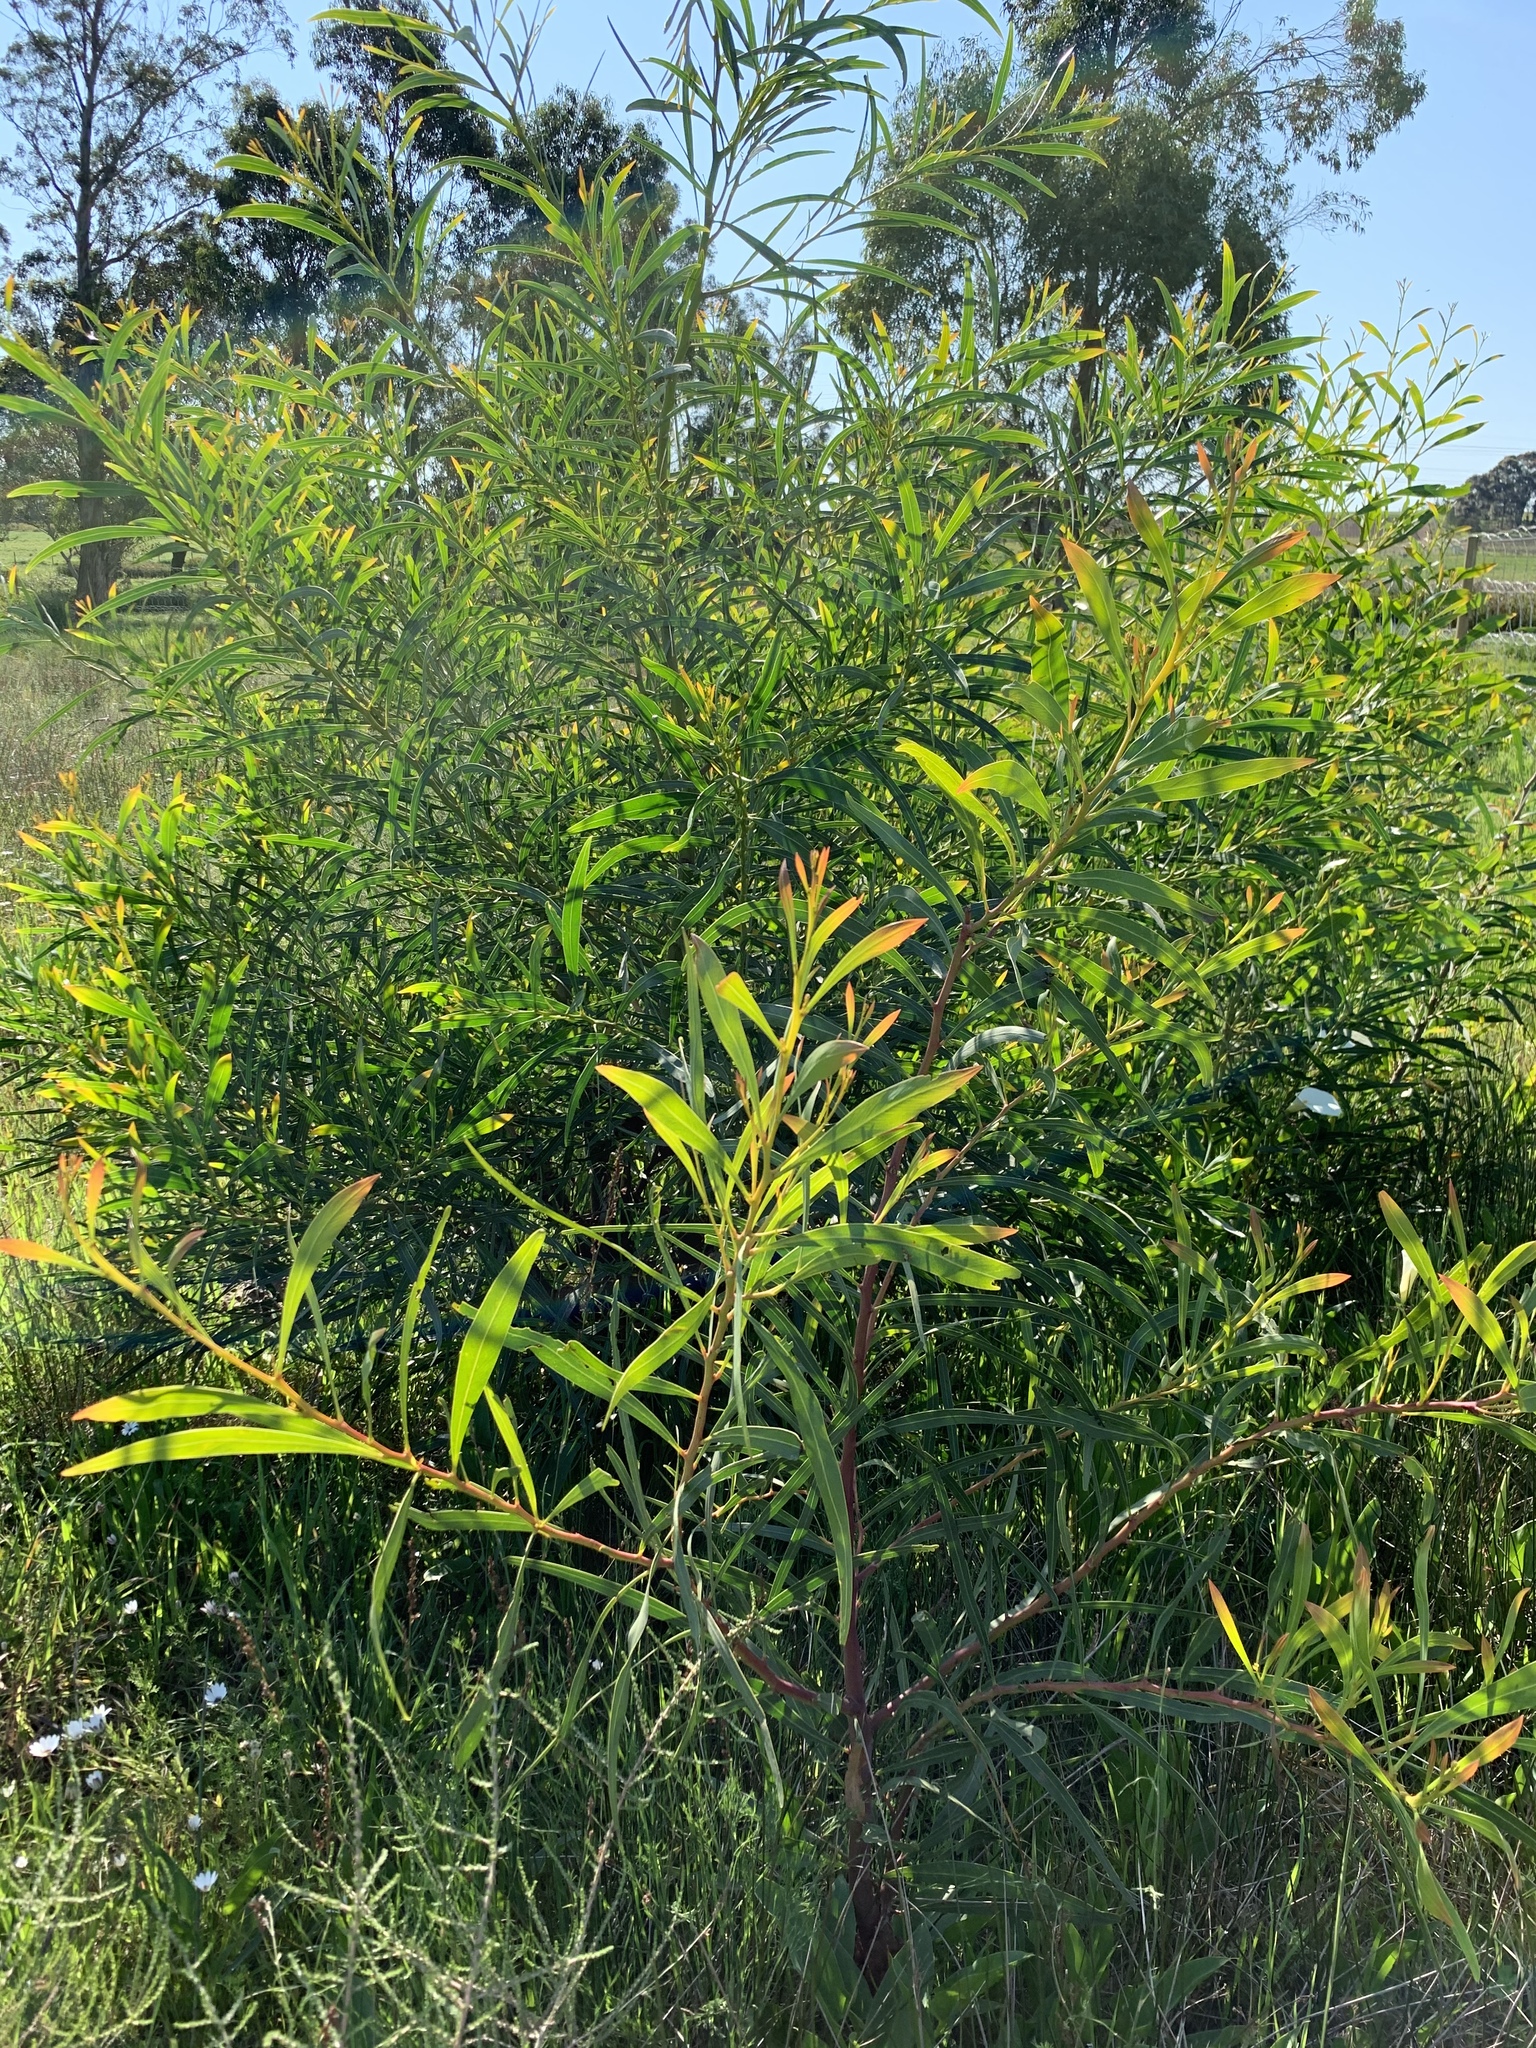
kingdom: Plantae
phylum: Tracheophyta
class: Magnoliopsida
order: Fabales
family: Fabaceae
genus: Acacia
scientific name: Acacia saligna
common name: Orange wattle
